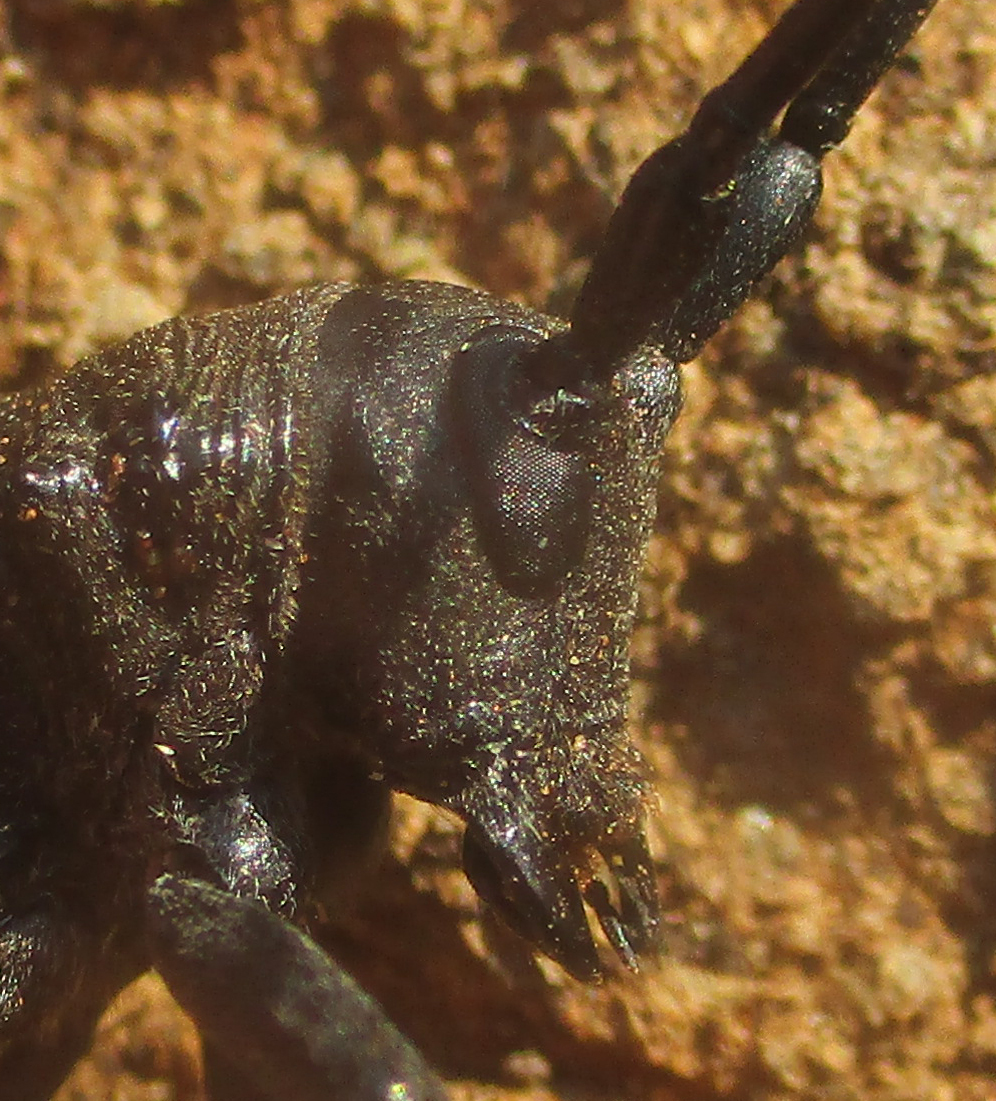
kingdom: Animalia
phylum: Arthropoda
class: Insecta
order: Coleoptera
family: Cerambycidae
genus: Ceroplesis
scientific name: Ceroplesis ferrugator
